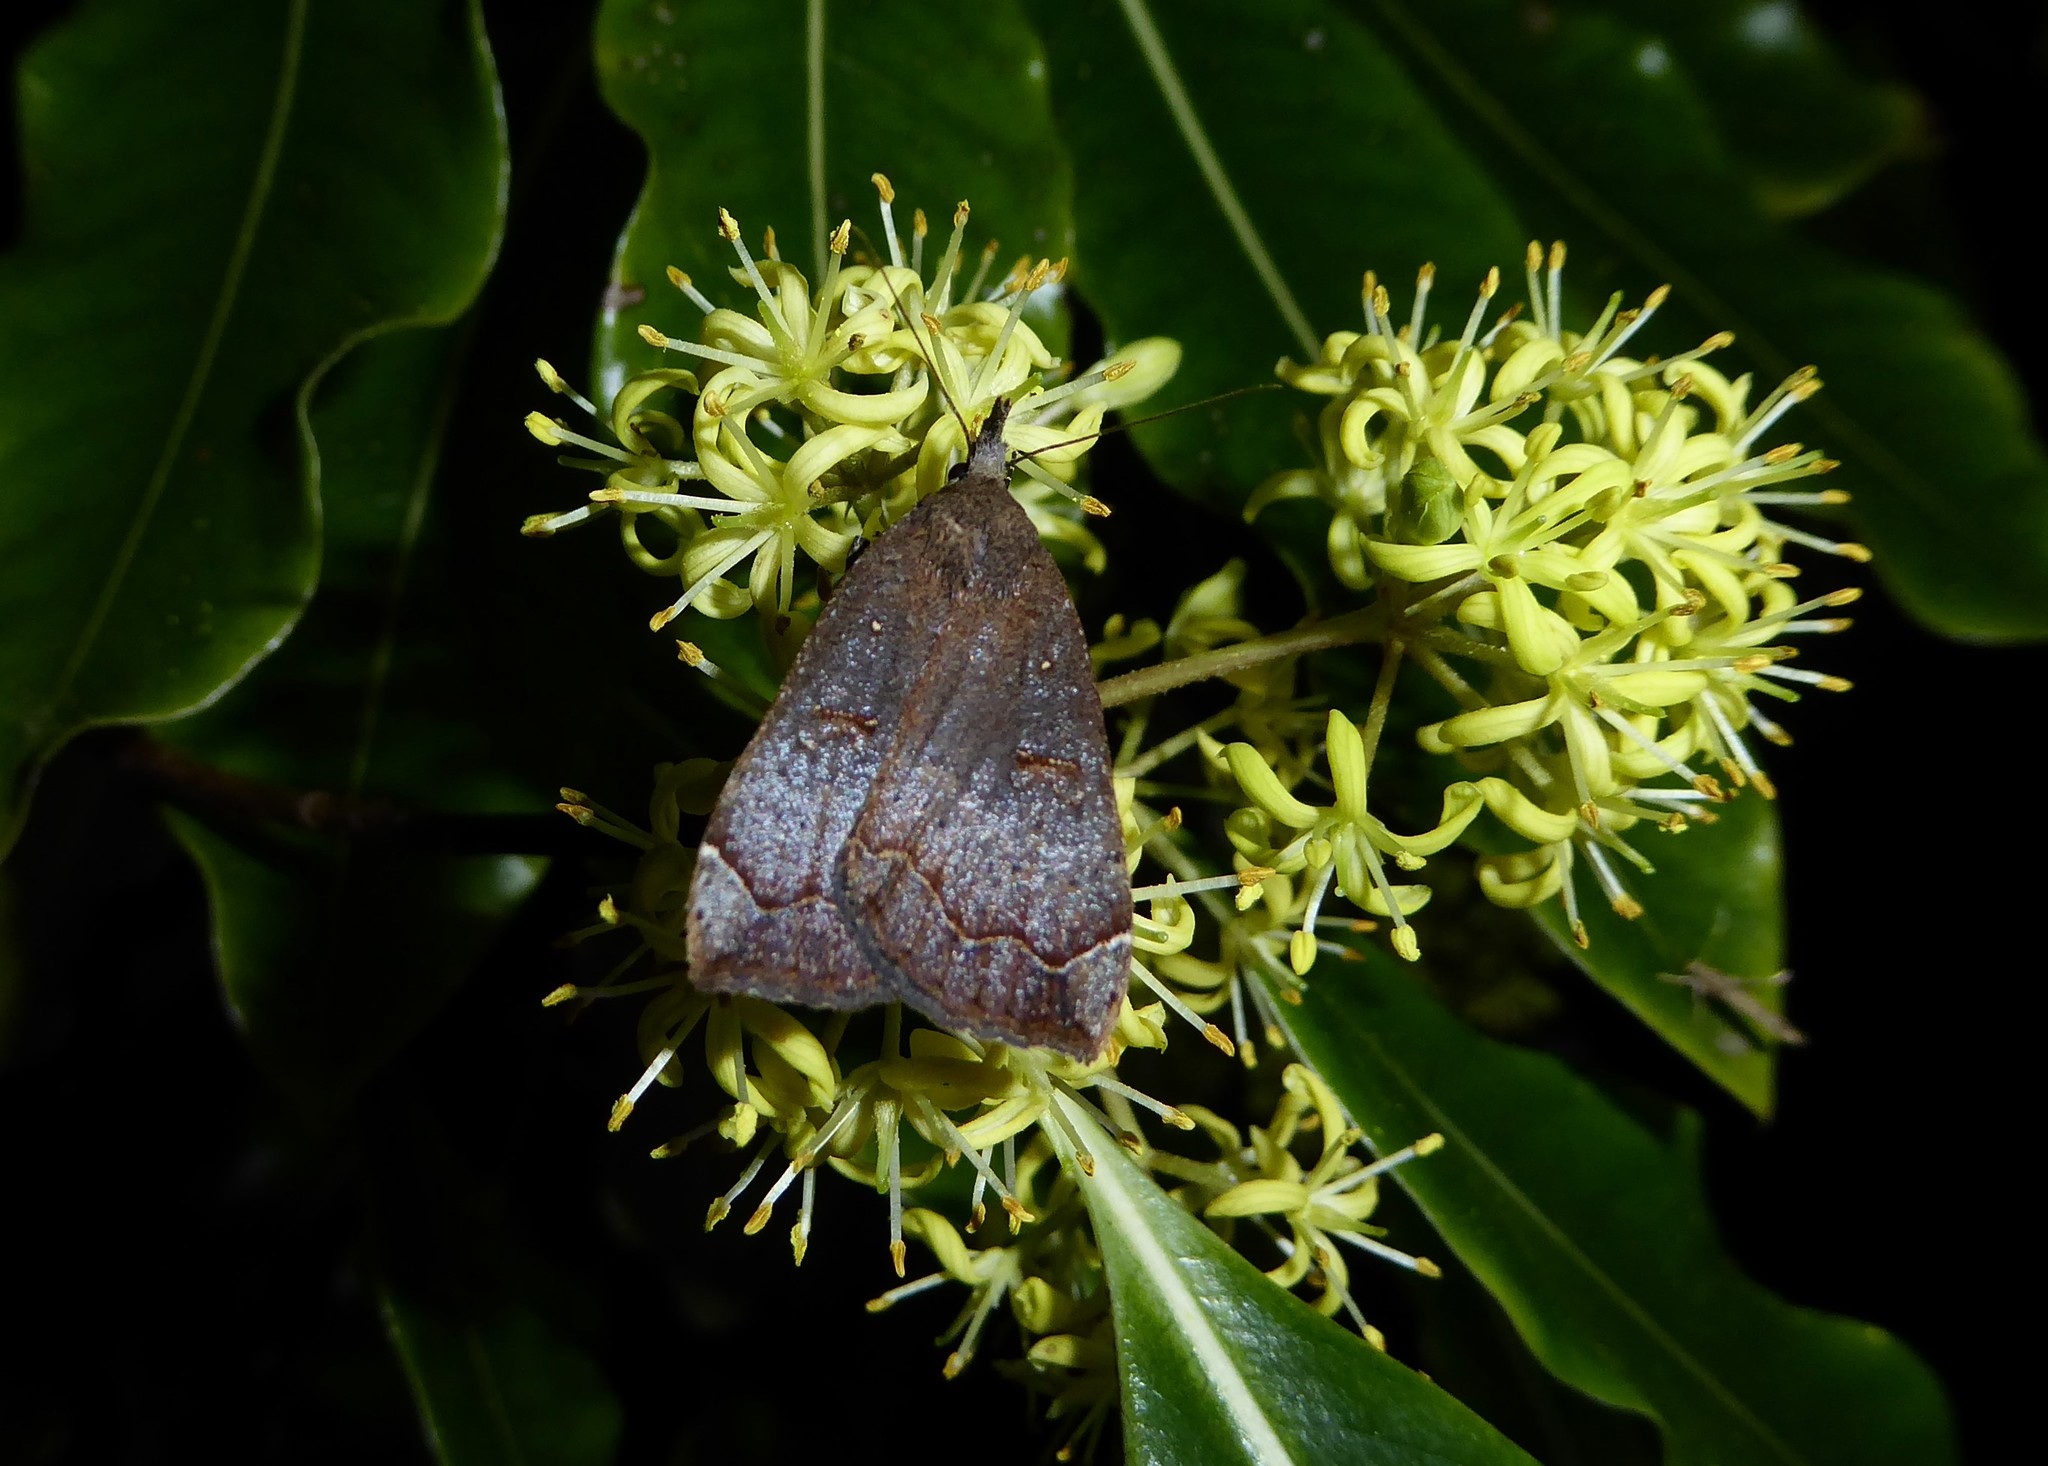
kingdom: Animalia
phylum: Arthropoda
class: Insecta
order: Lepidoptera
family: Erebidae
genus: Rhapsa
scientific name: Rhapsa scotosialis
